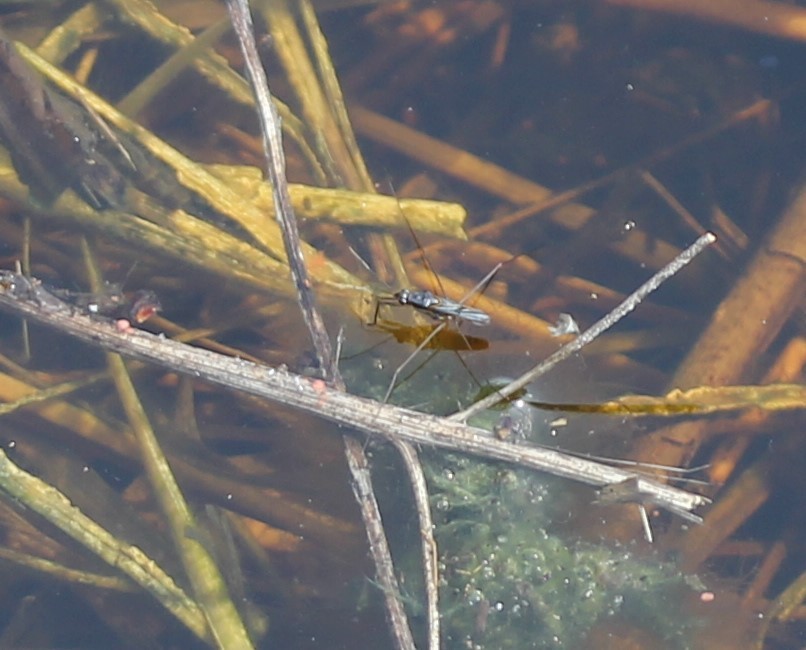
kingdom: Animalia
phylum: Arthropoda
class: Insecta
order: Hemiptera
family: Gerridae
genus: Limnogonus
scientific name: Limnogonus
